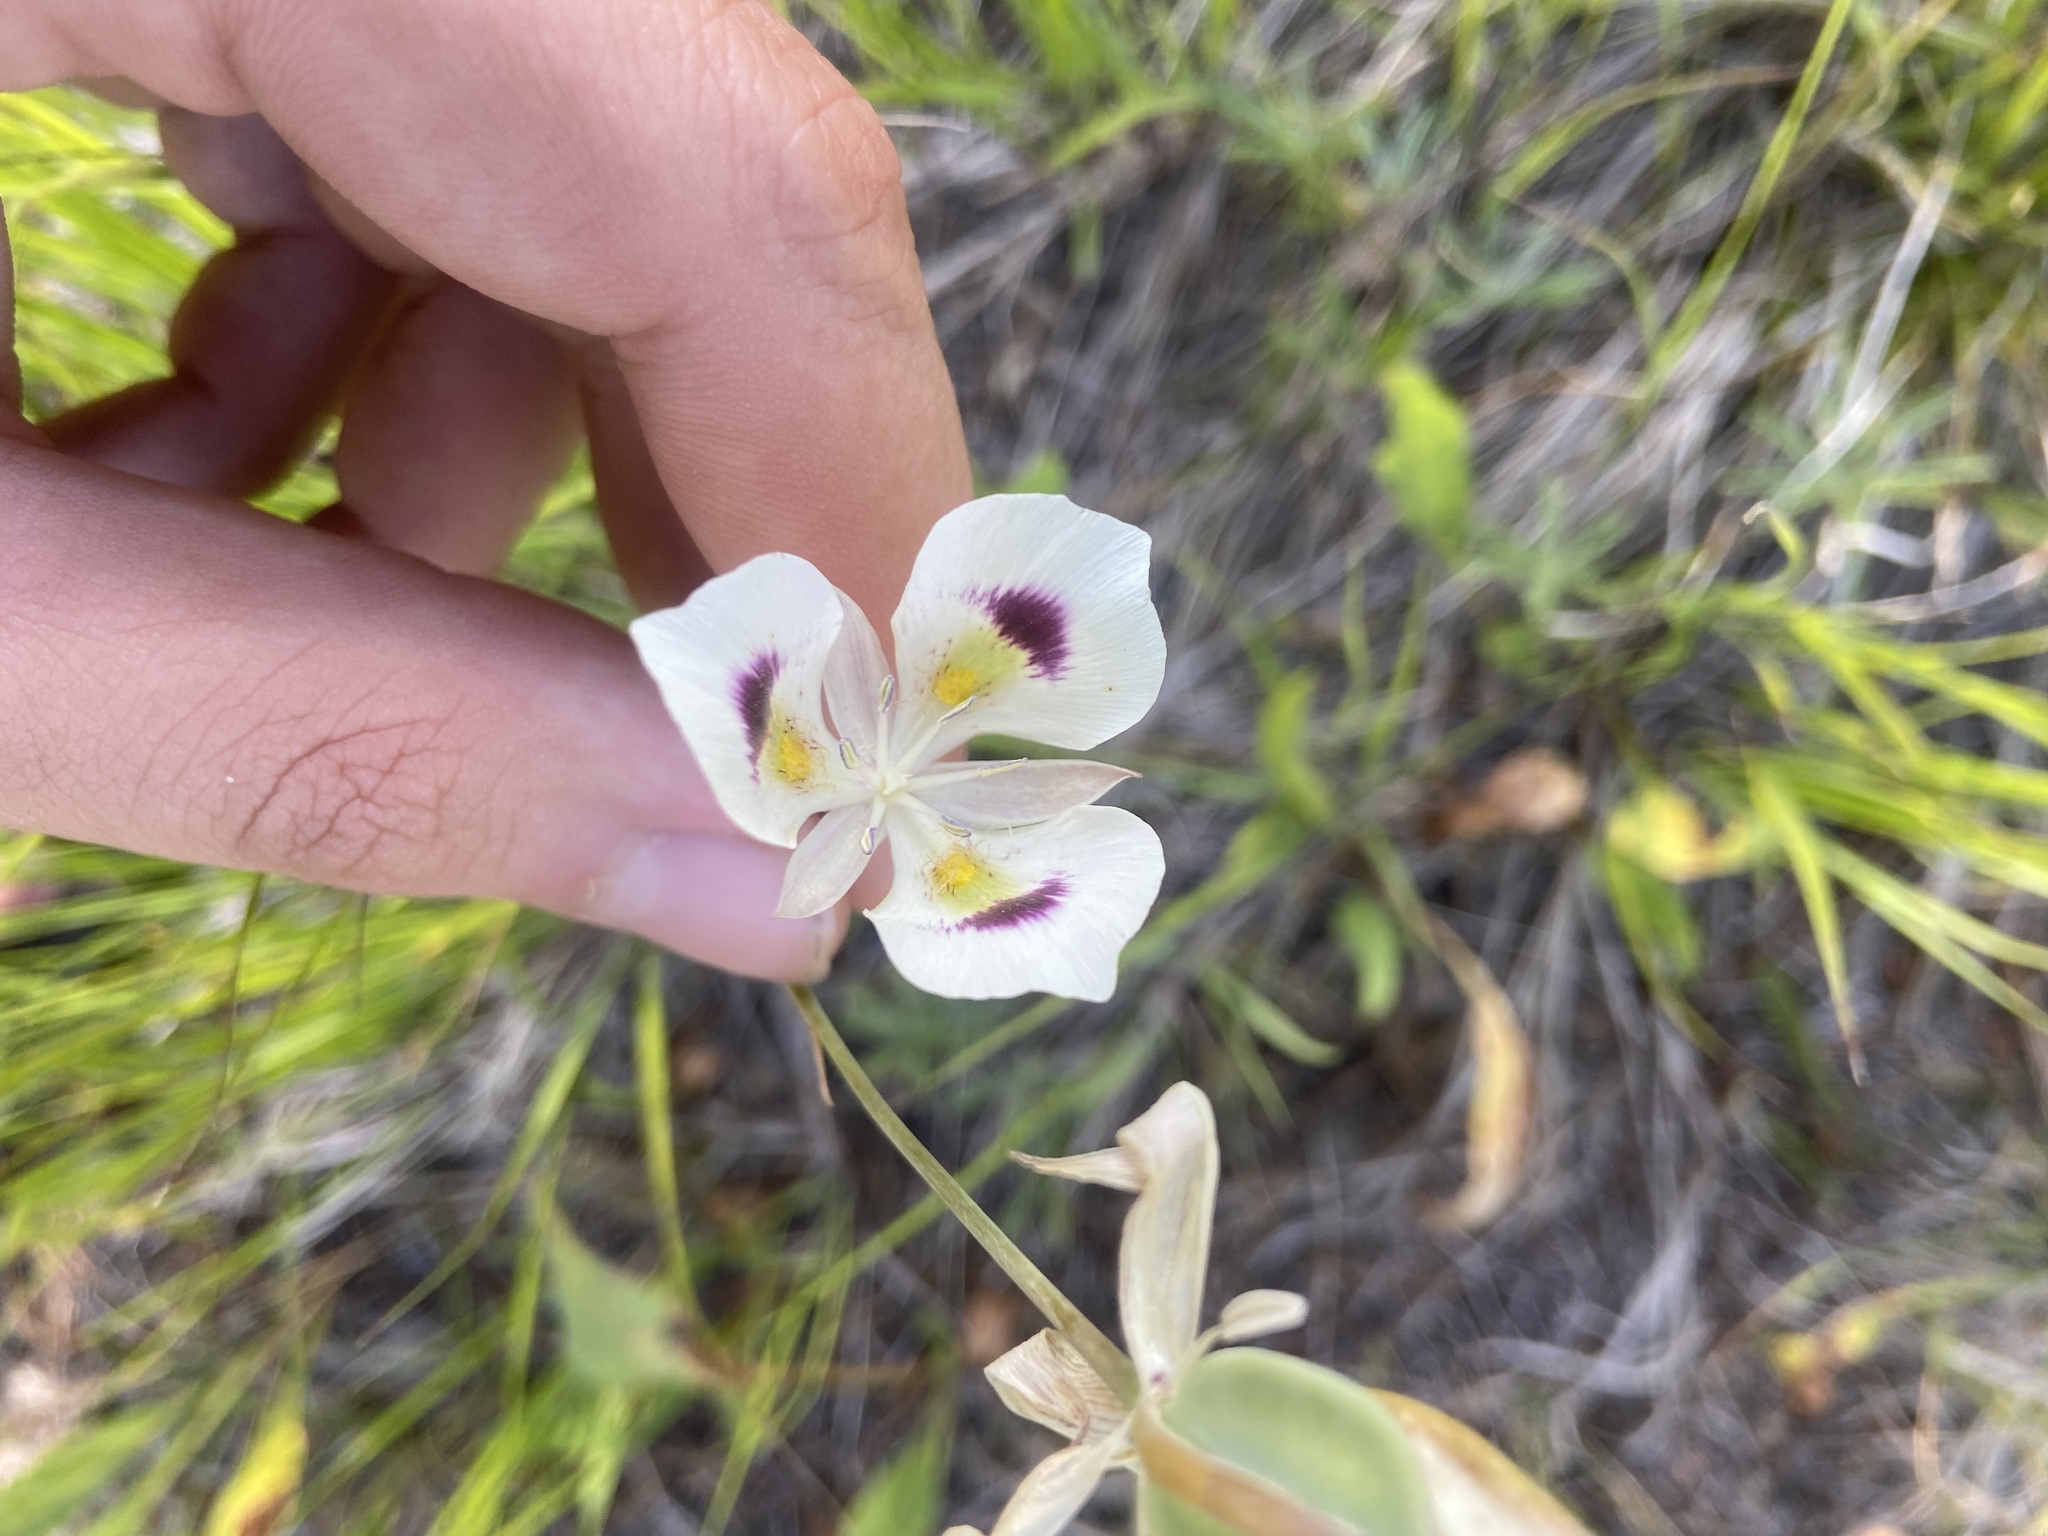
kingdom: Plantae
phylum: Tracheophyta
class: Liliopsida
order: Liliales
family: Liliaceae
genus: Calochortus
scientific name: Calochortus eurycarpus
